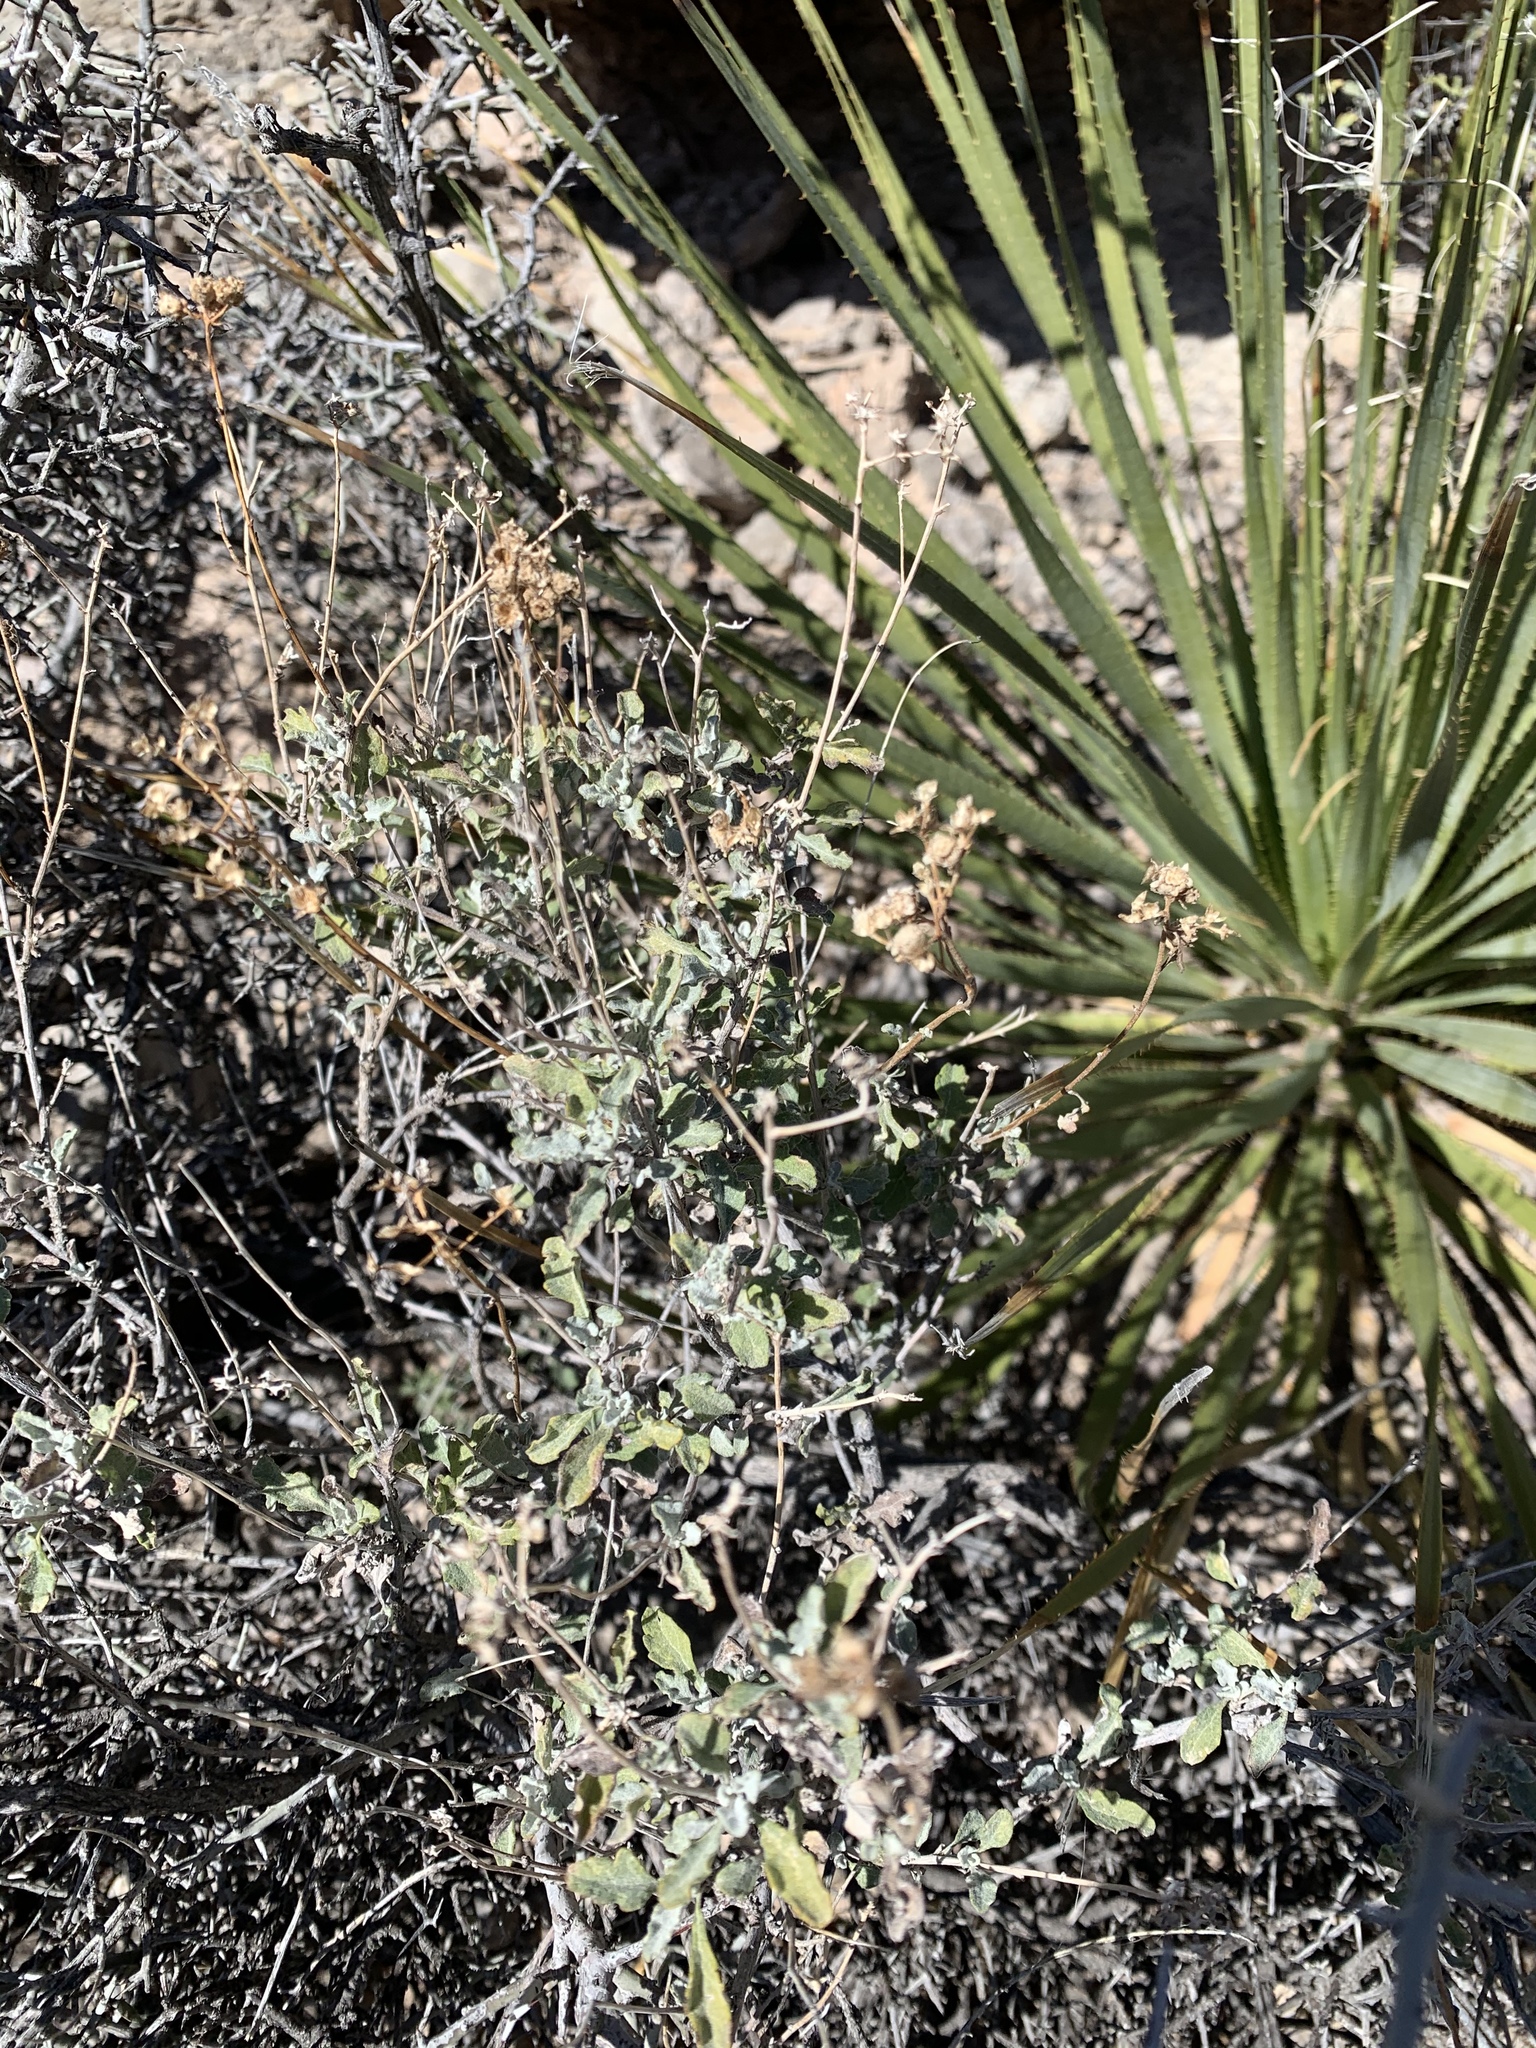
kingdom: Plantae
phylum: Tracheophyta
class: Magnoliopsida
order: Asterales
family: Asteraceae
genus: Parthenium
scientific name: Parthenium incanum
